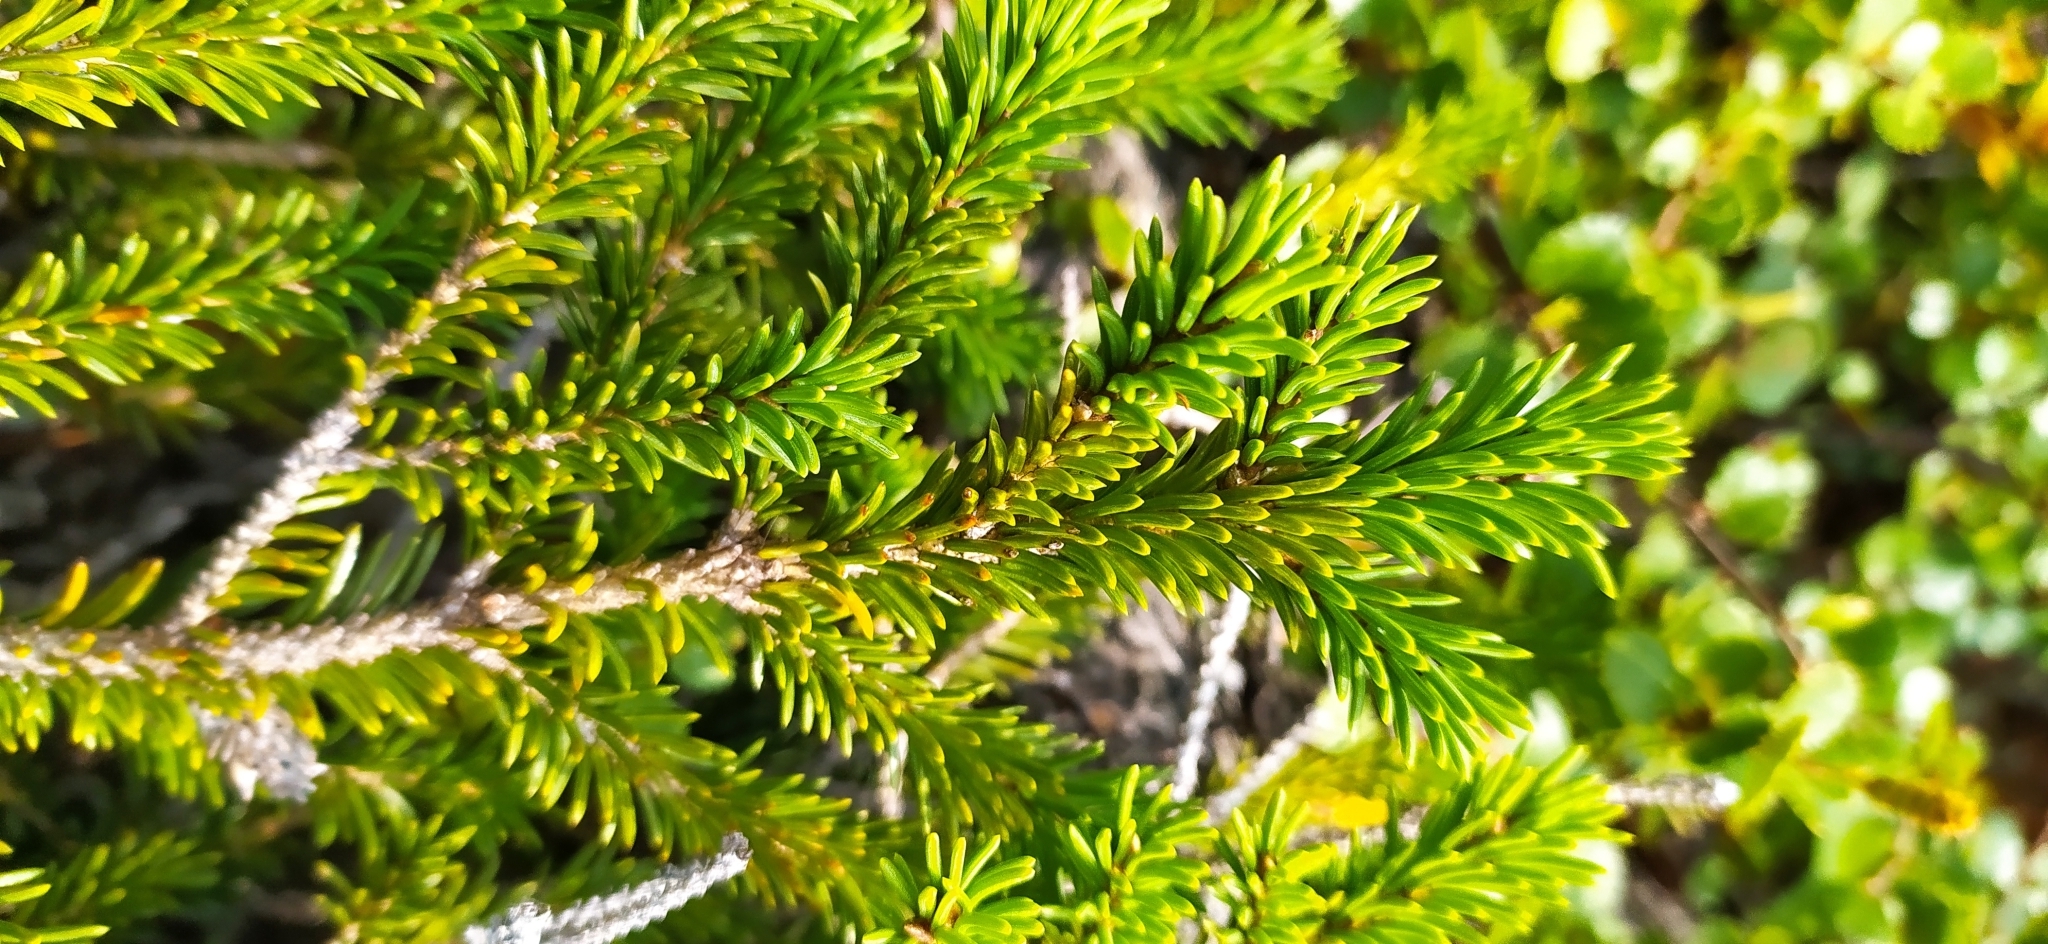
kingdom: Plantae
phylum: Tracheophyta
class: Pinopsida
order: Pinales
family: Pinaceae
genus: Picea
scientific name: Picea obovata
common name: Siberian spruce
